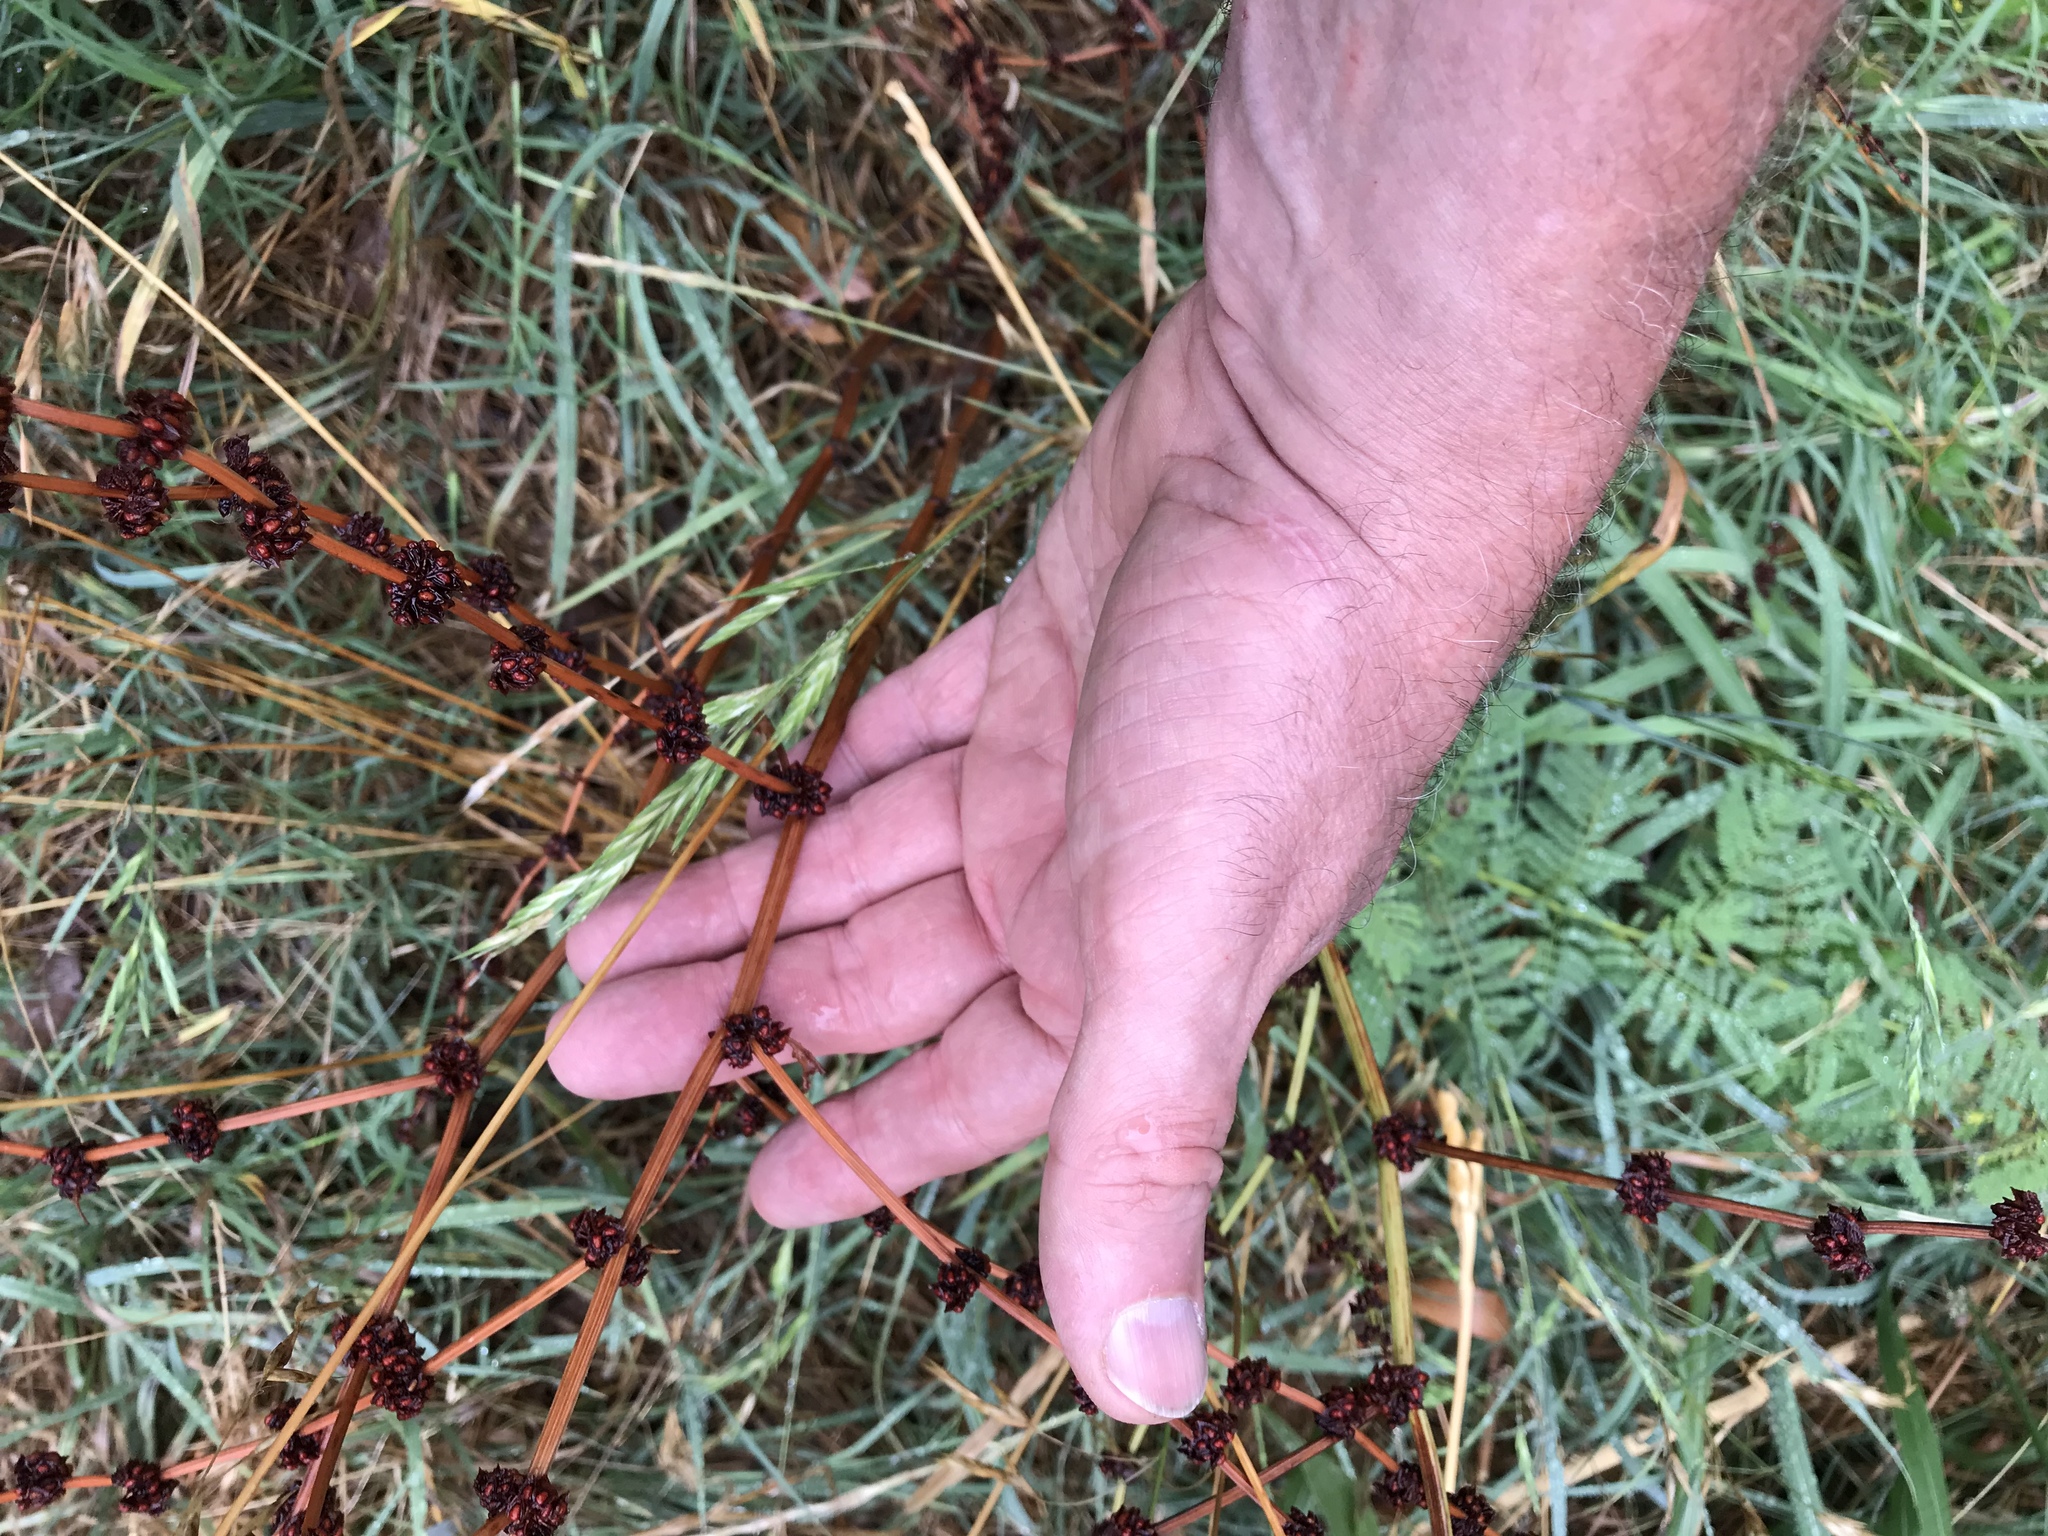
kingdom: Plantae
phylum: Tracheophyta
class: Magnoliopsida
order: Caryophyllales
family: Polygonaceae
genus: Rumex
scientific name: Rumex crispus
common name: Curled dock
